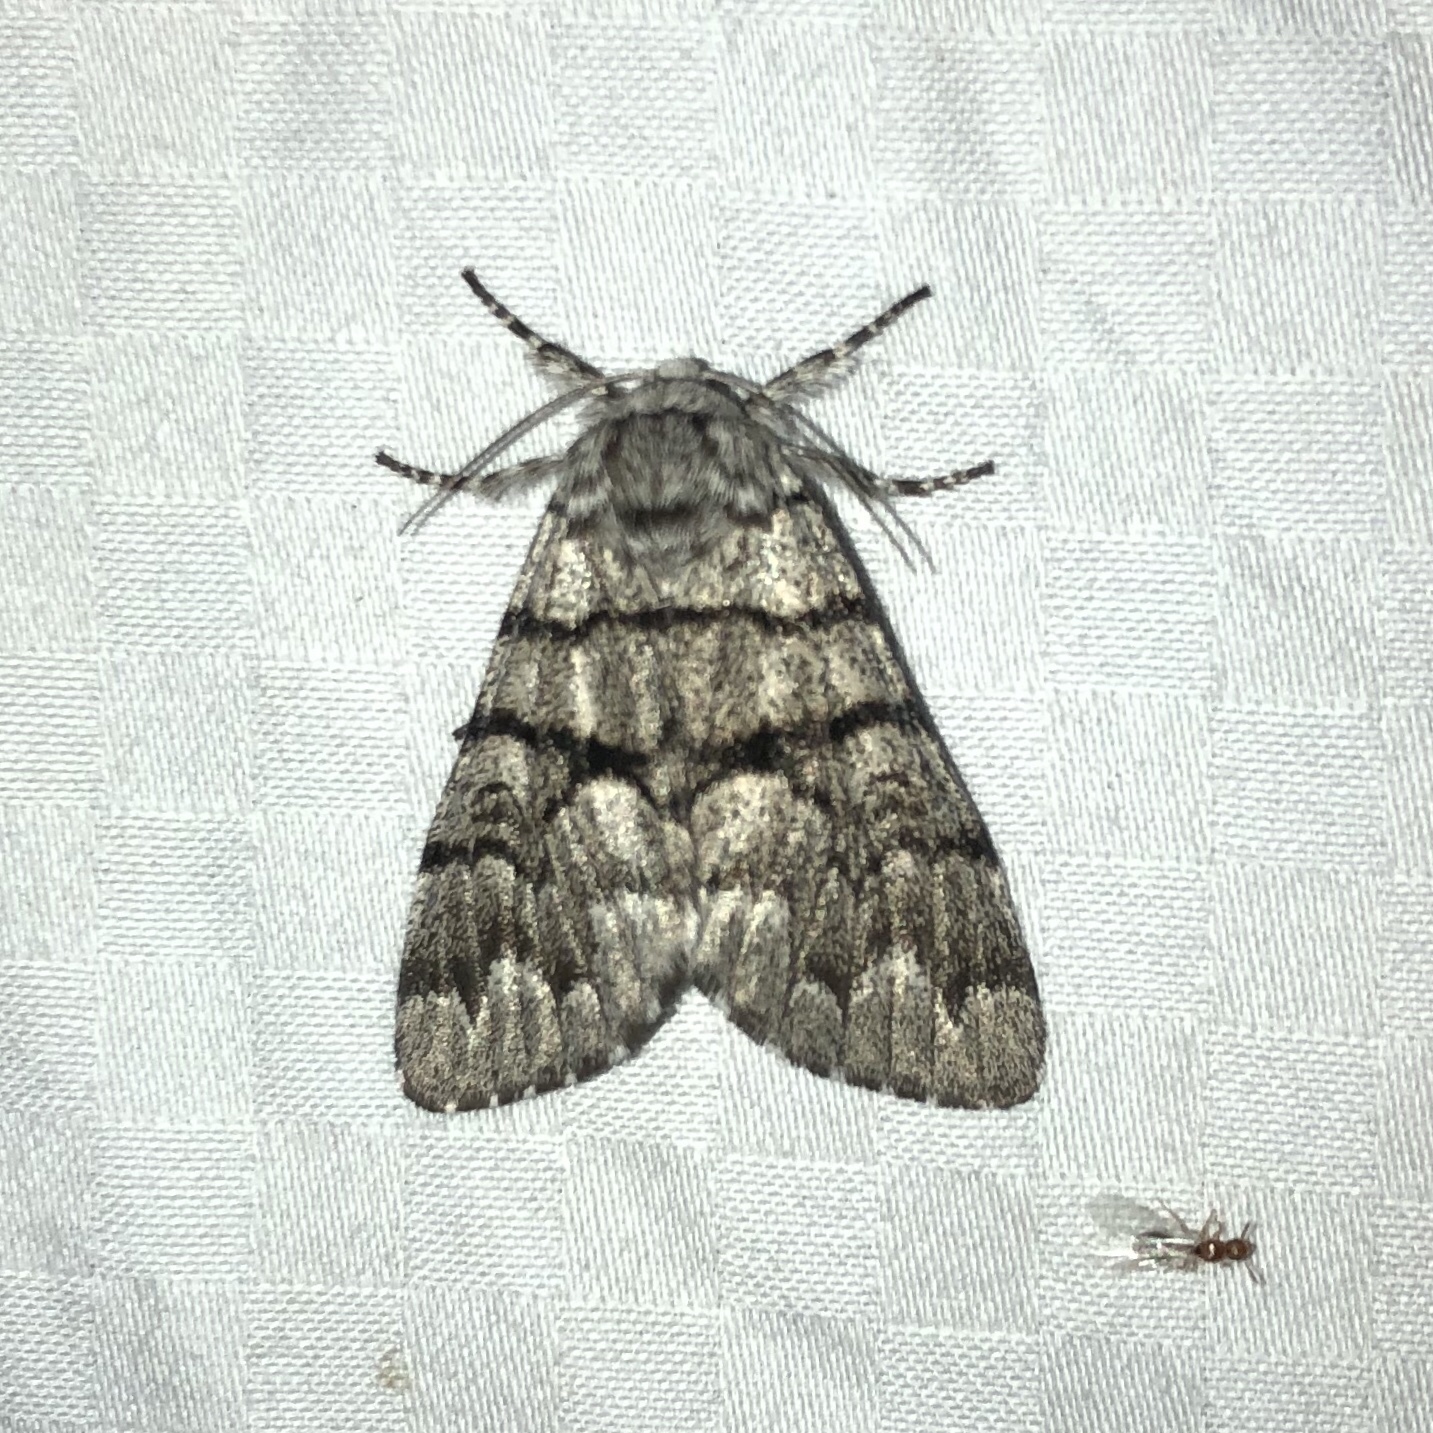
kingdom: Animalia
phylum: Arthropoda
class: Insecta
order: Lepidoptera
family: Noctuidae
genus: Panthea
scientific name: Panthea furcilla
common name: Eastern panthea moth
